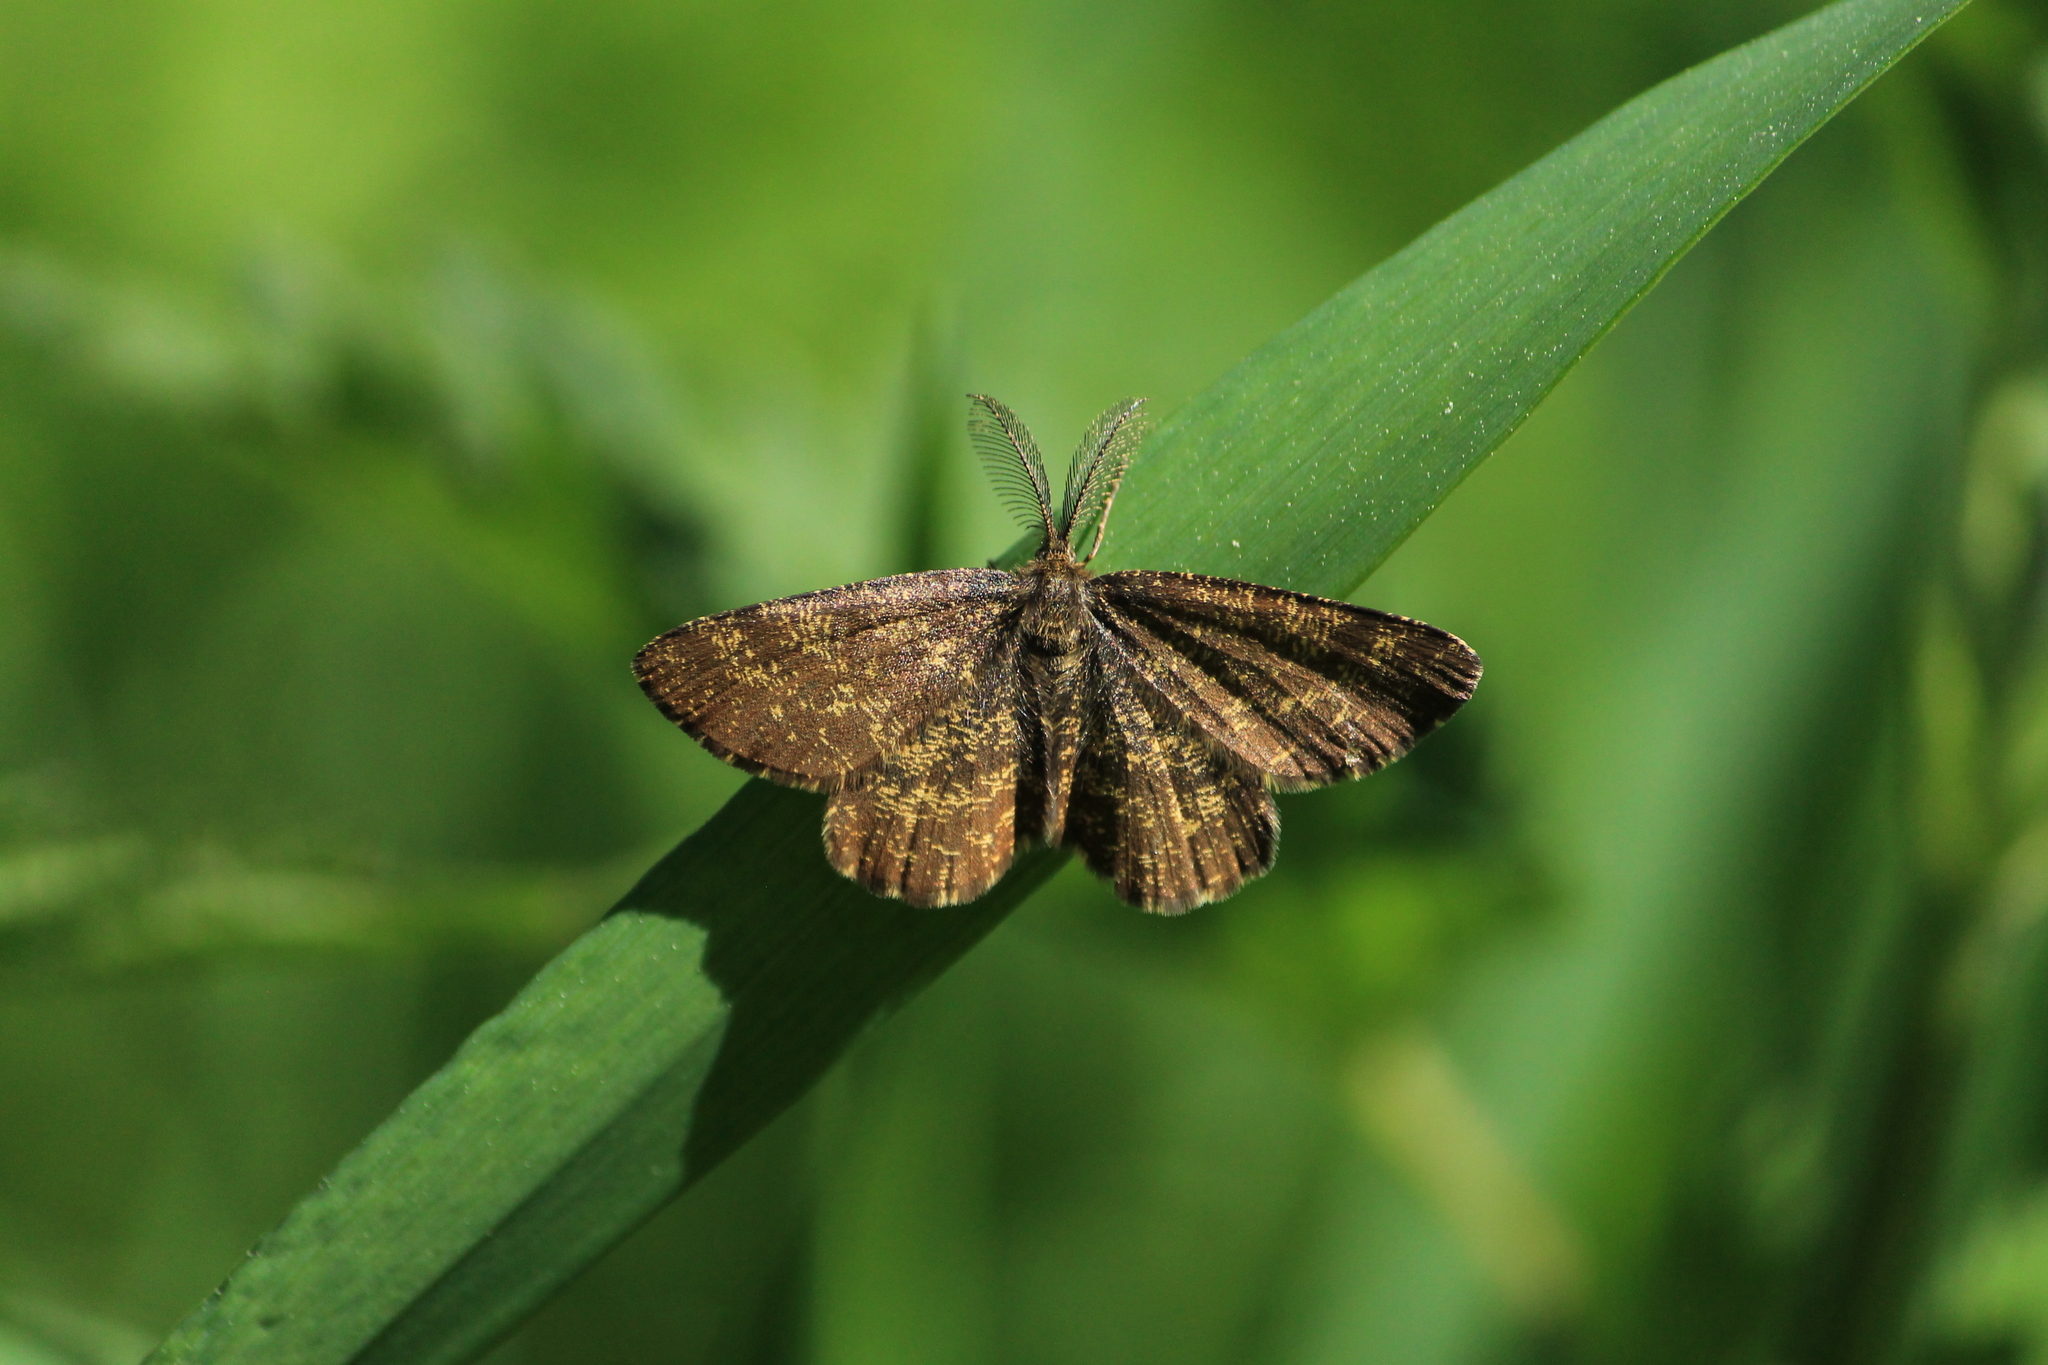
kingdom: Animalia
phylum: Arthropoda
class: Insecta
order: Lepidoptera
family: Geometridae
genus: Ematurga
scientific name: Ematurga atomaria
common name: Common heath
